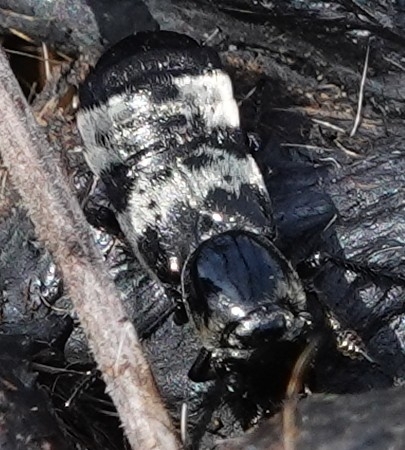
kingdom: Animalia
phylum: Arthropoda
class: Insecta
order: Coleoptera
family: Staphylinidae
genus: Creophilus
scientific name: Creophilus maxillosus
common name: Hairy rove beetle
